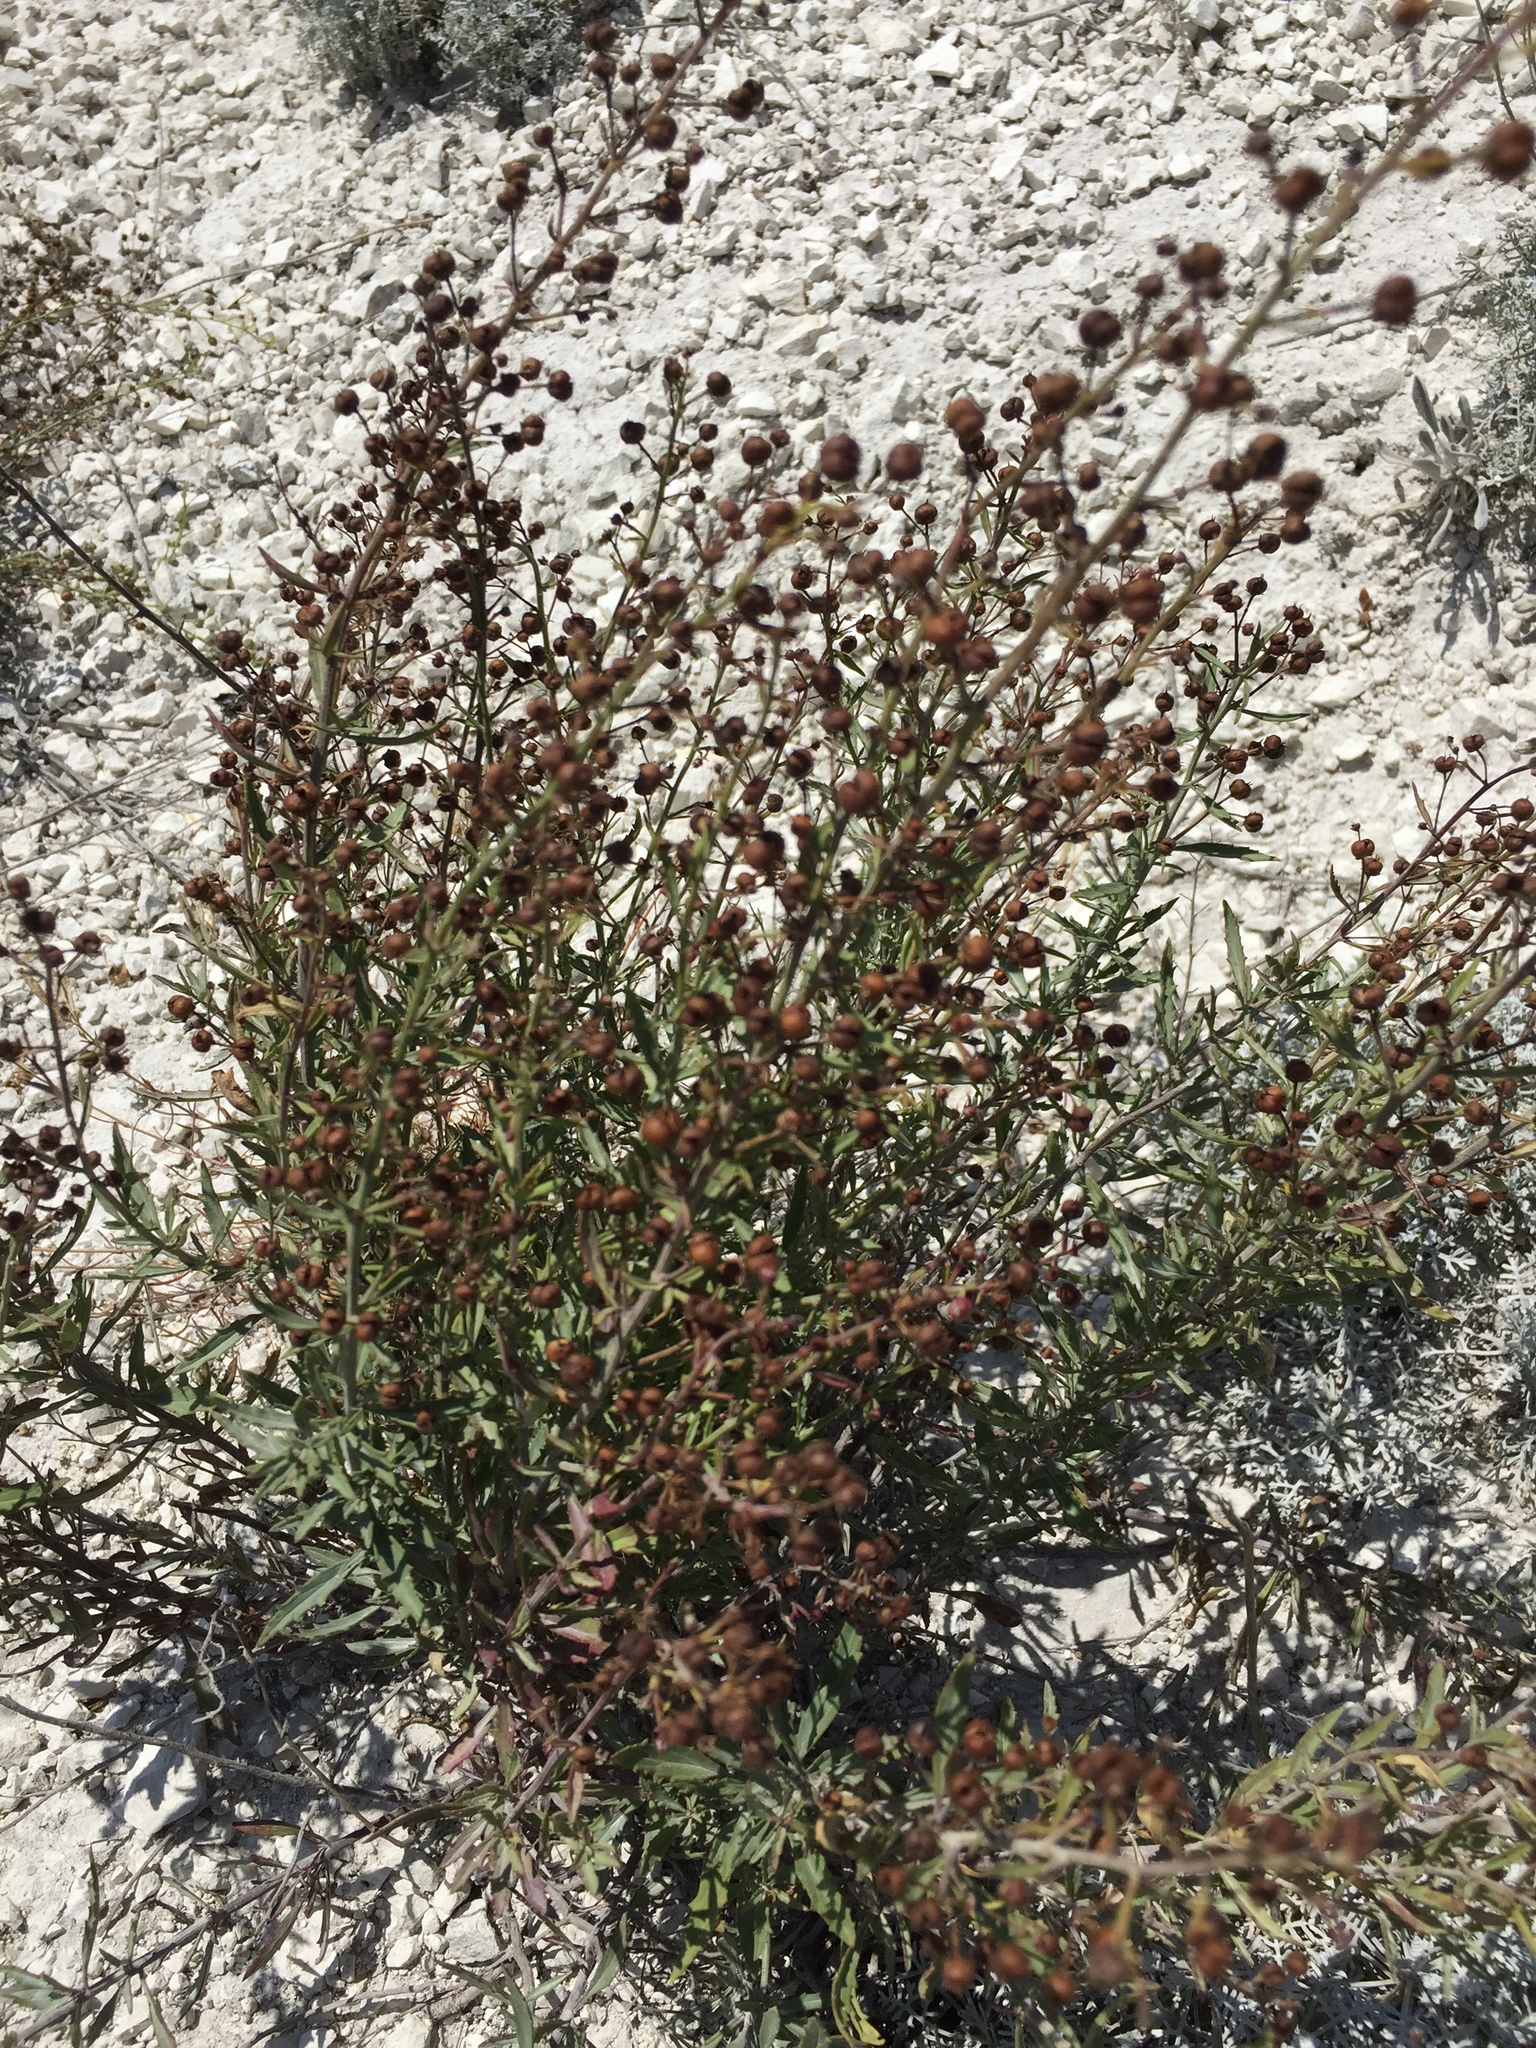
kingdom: Plantae
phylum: Tracheophyta
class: Magnoliopsida
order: Lamiales
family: Scrophulariaceae
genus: Scrophularia
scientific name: Scrophularia cretacea
